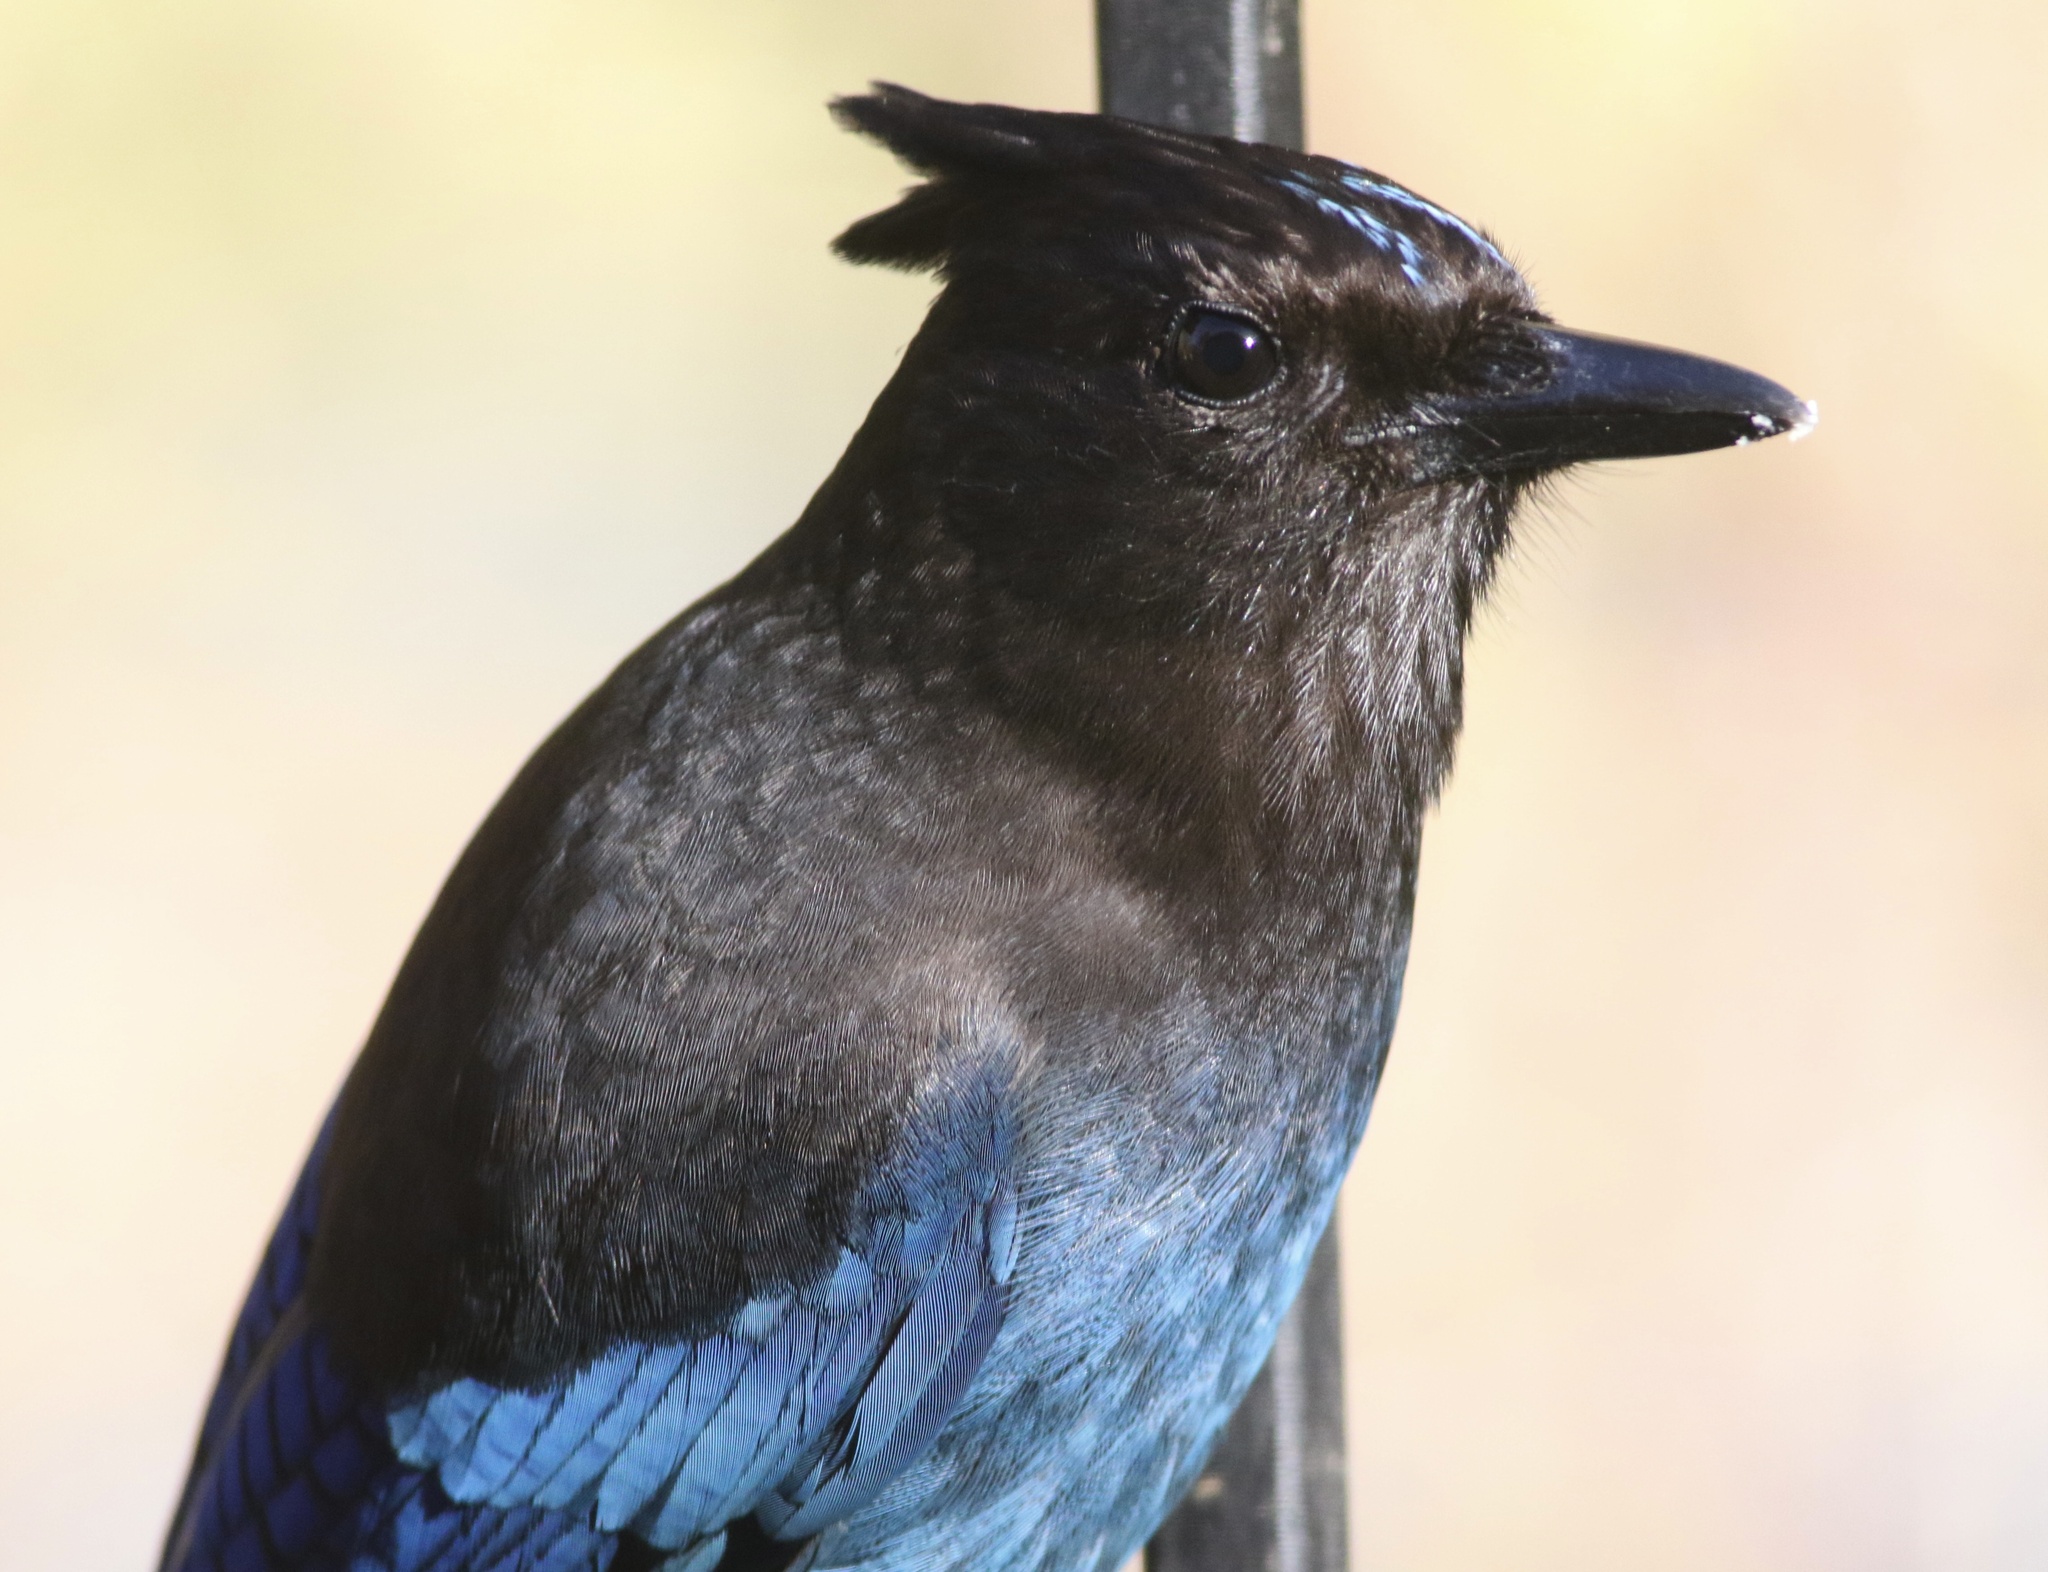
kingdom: Animalia
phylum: Chordata
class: Aves
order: Passeriformes
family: Corvidae
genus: Cyanocitta
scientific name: Cyanocitta stelleri
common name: Steller's jay
